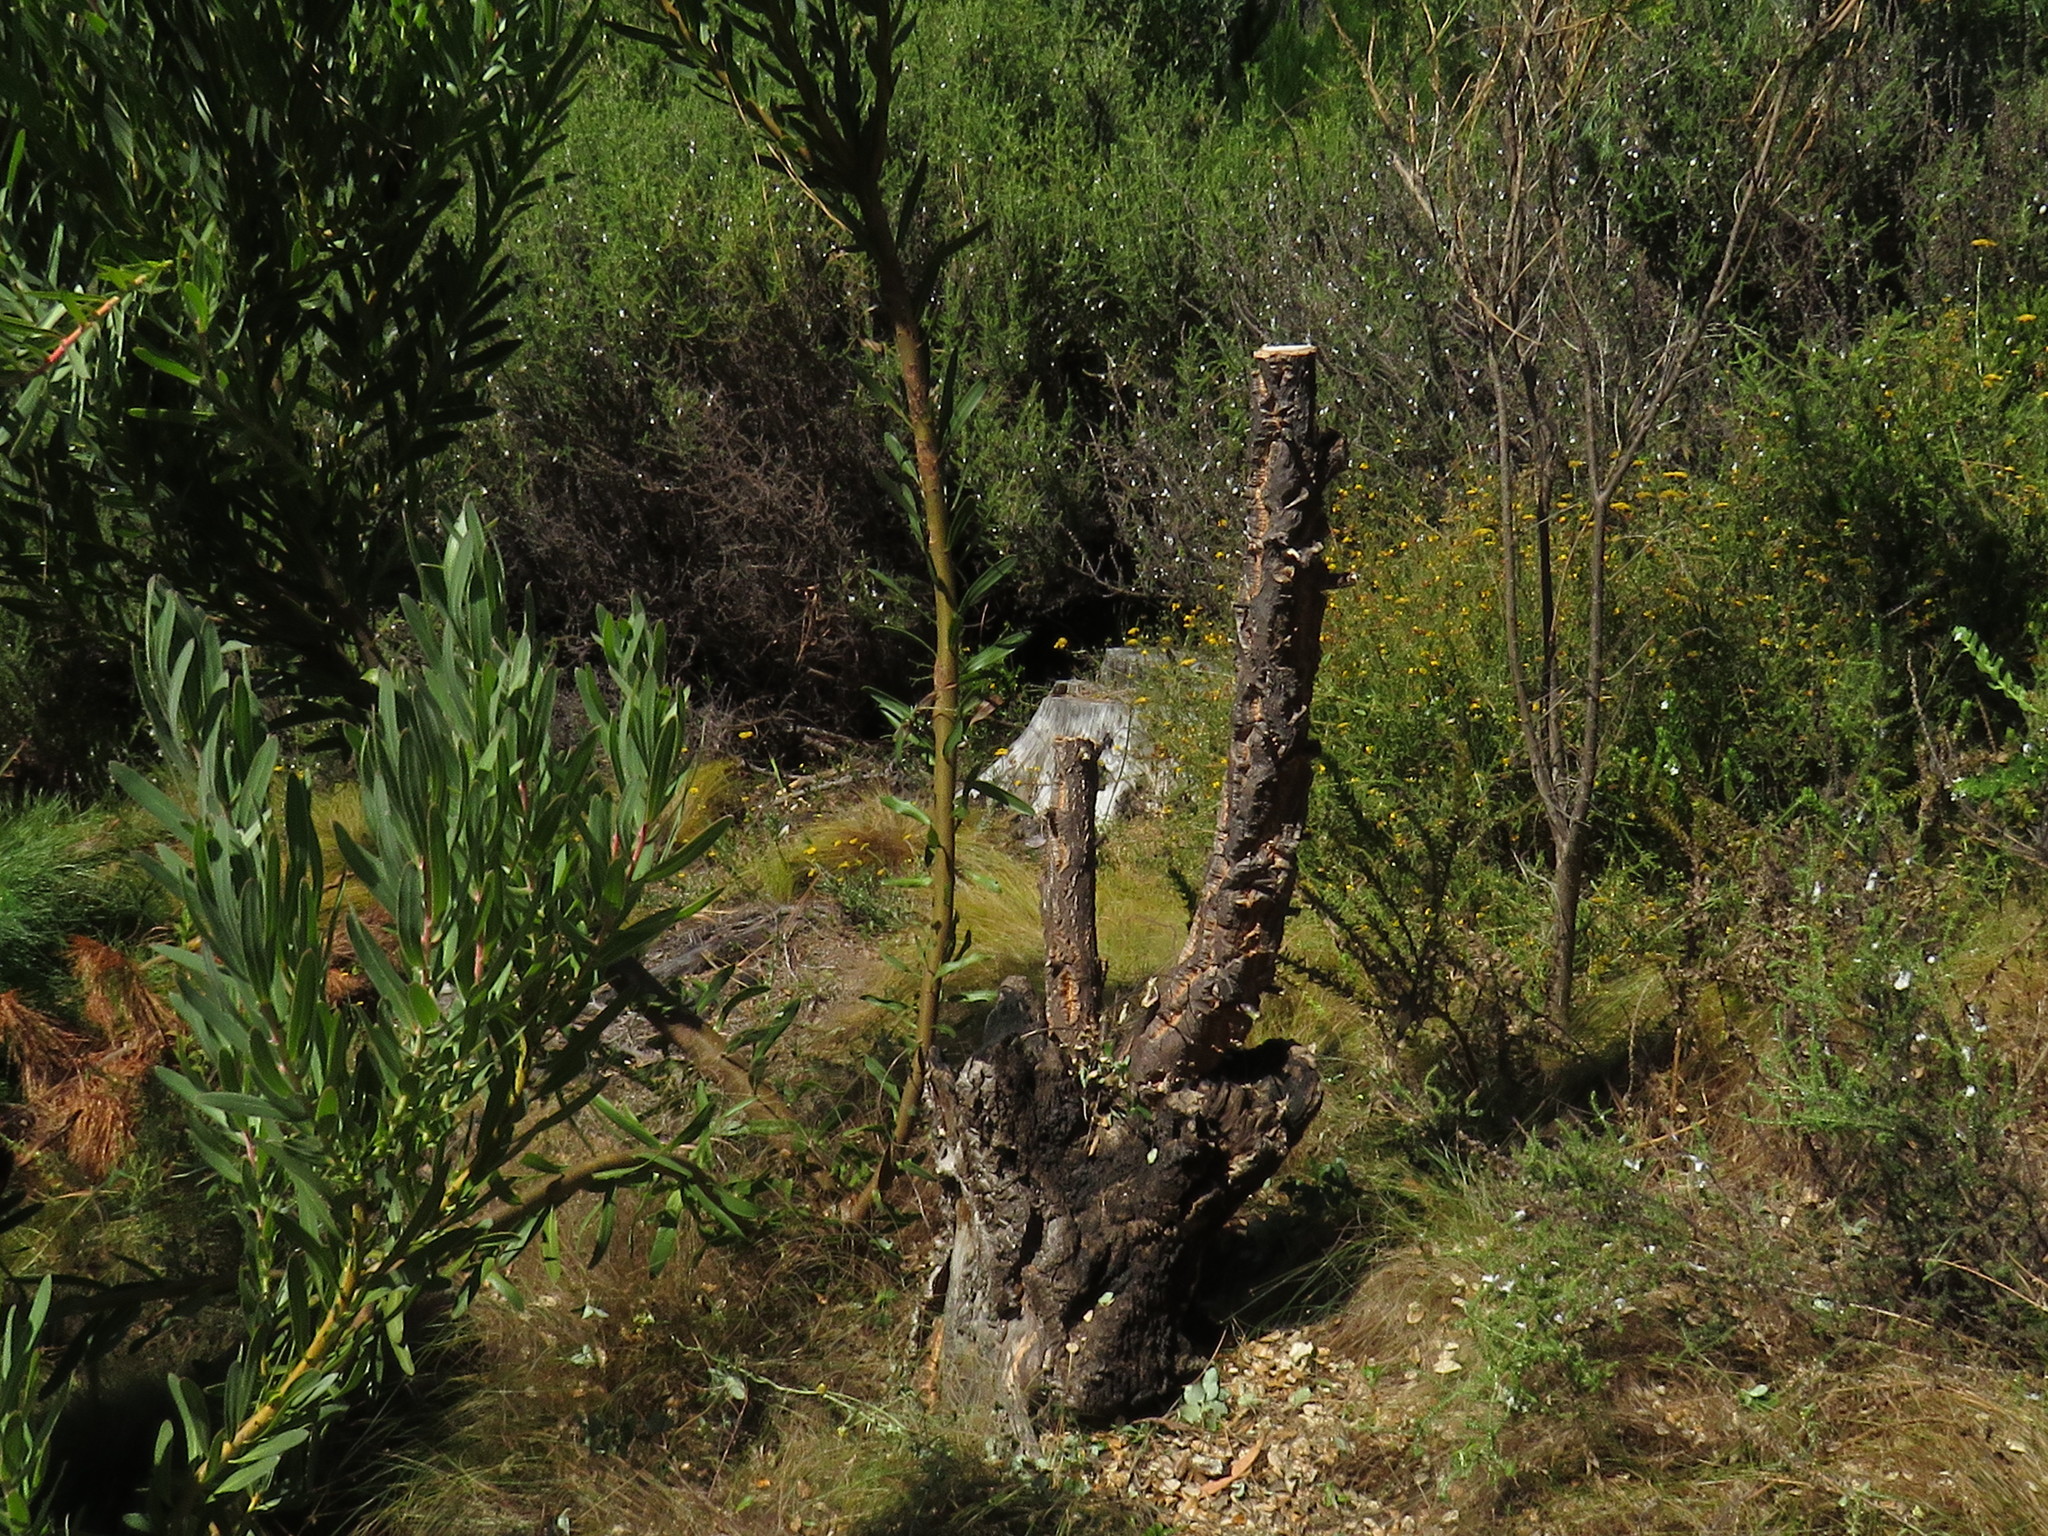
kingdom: Plantae
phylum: Tracheophyta
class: Magnoliopsida
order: Fagales
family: Fagaceae
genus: Quercus
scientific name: Quercus suber
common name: Cork oak
